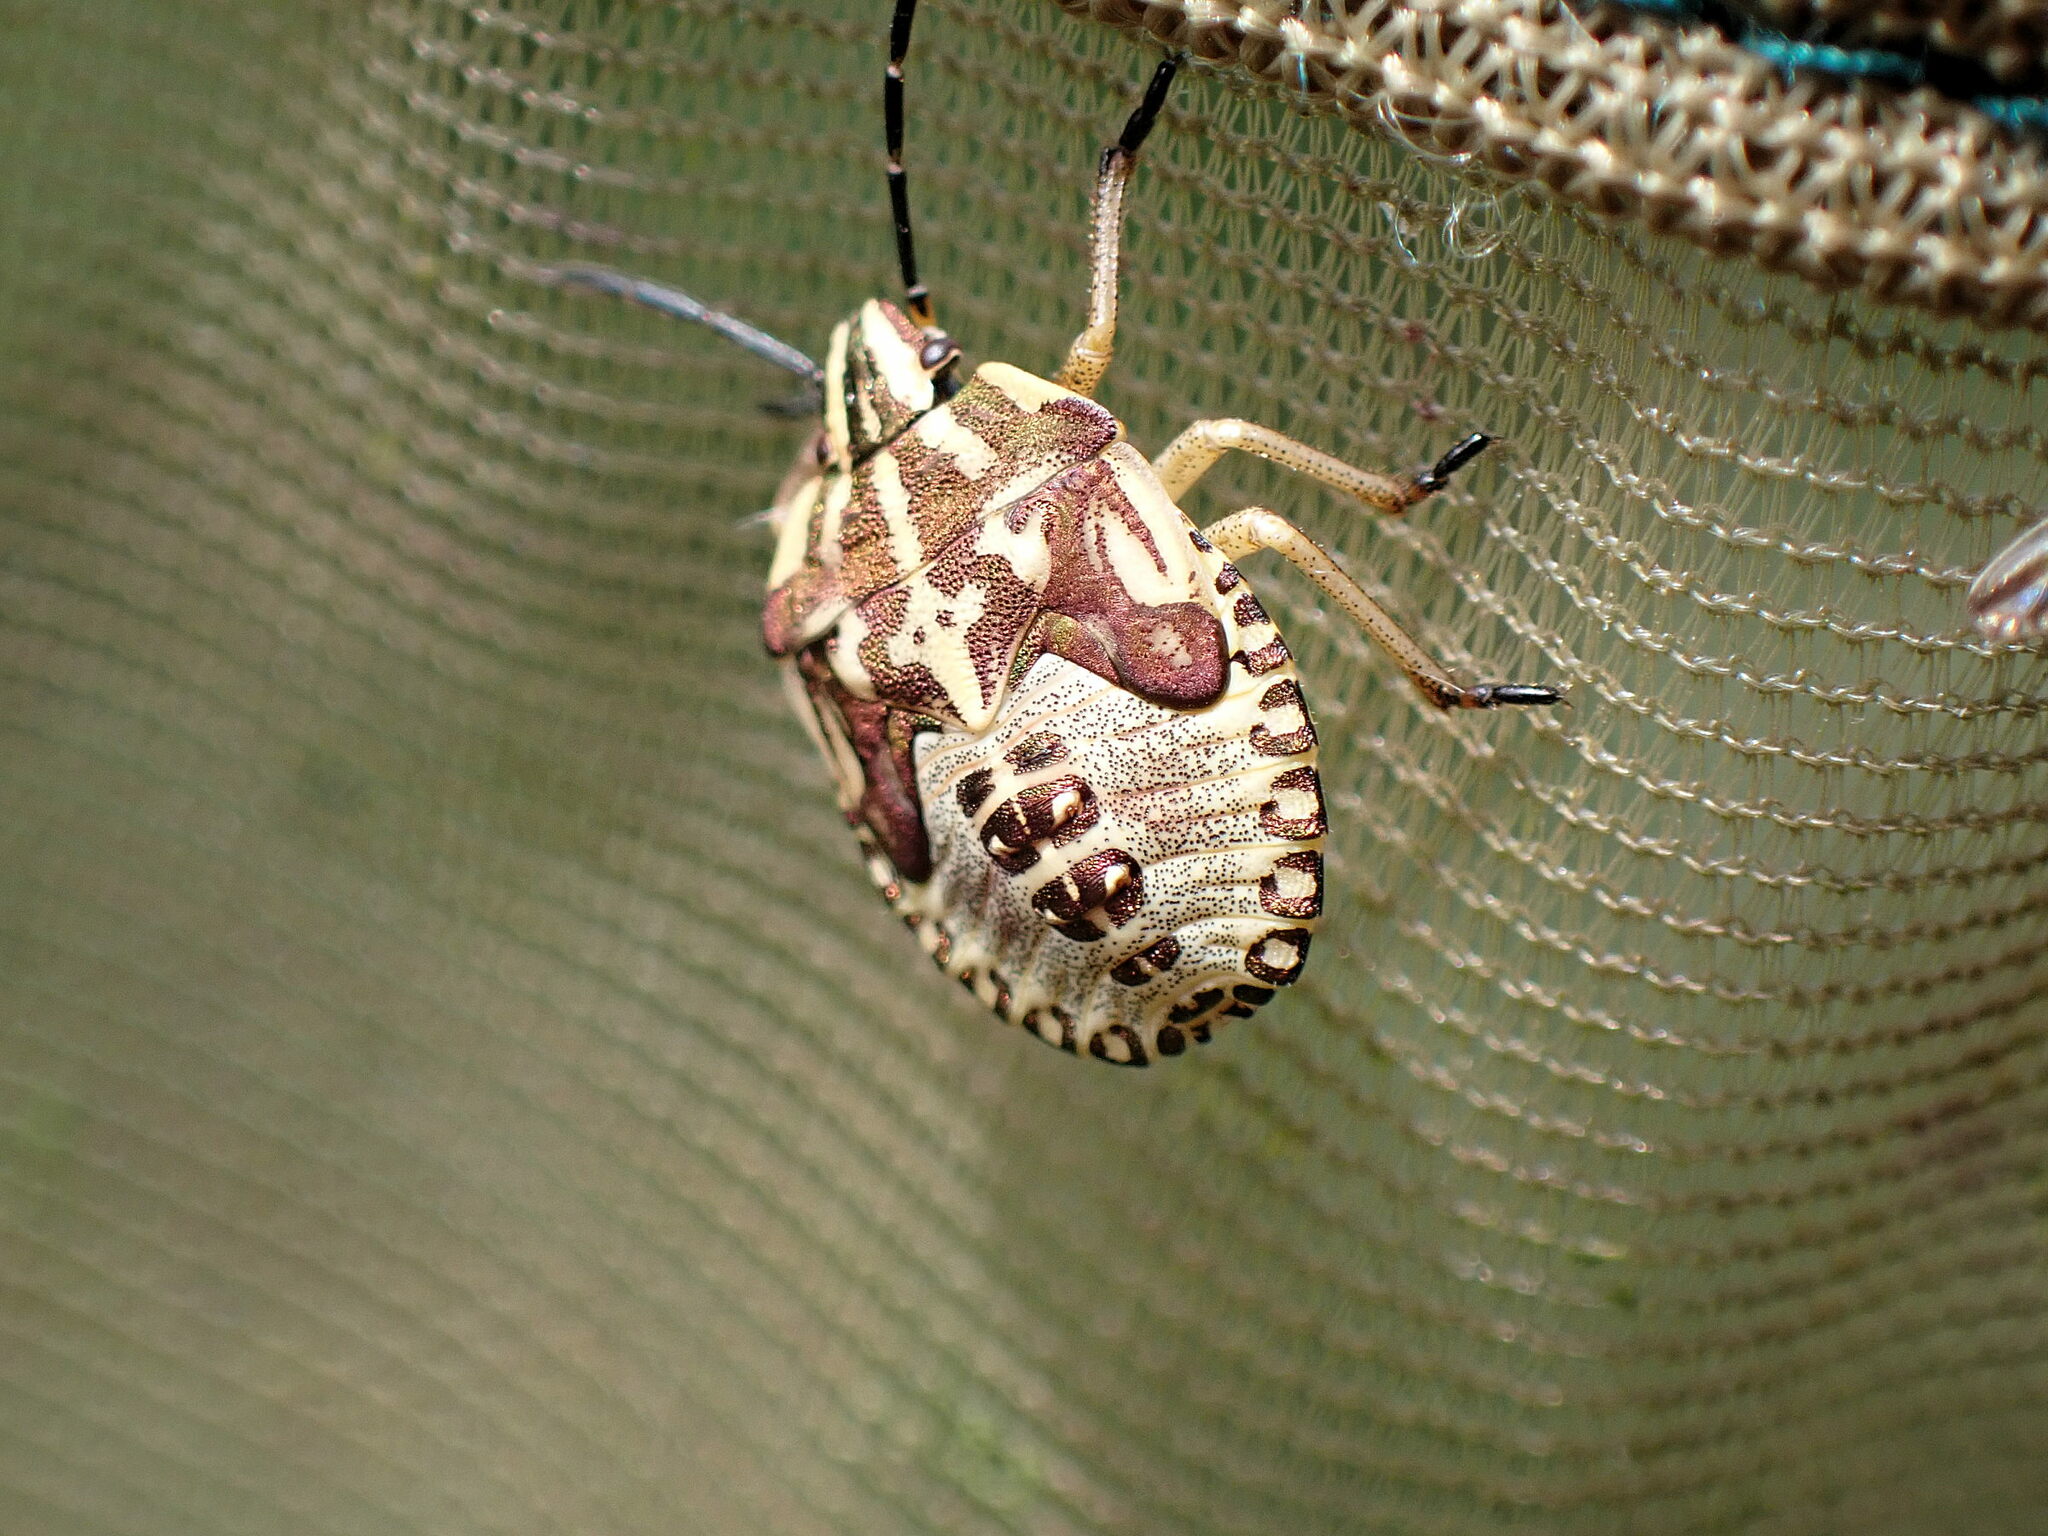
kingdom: Animalia
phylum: Arthropoda
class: Insecta
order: Hemiptera
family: Pentatomidae
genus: Carpocoris
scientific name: Carpocoris purpureipennis
